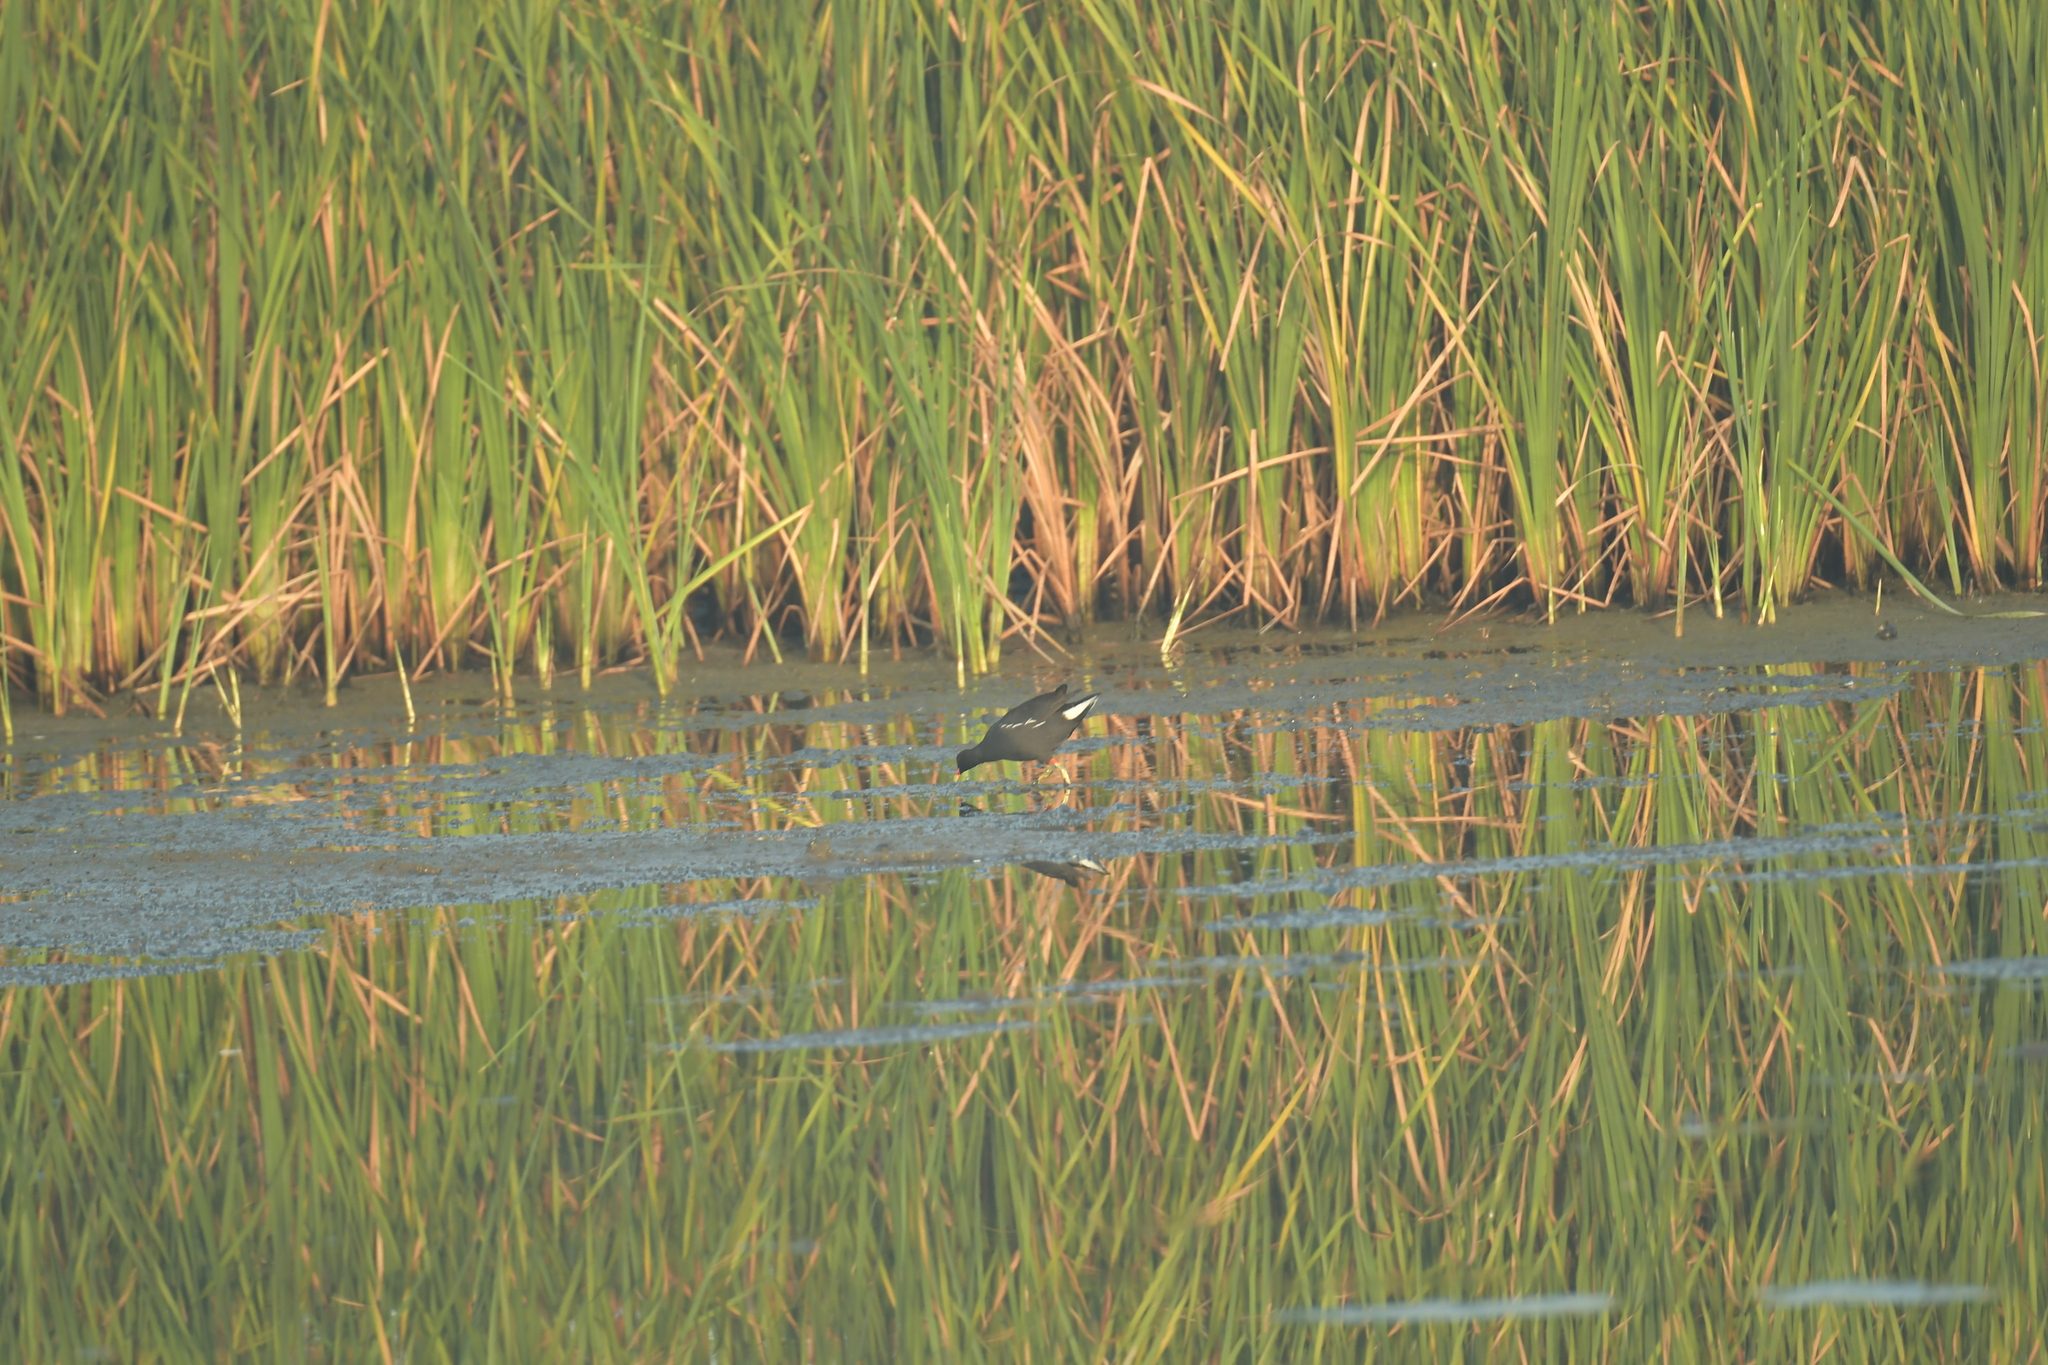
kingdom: Animalia
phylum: Chordata
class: Aves
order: Gruiformes
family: Rallidae
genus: Gallinula
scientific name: Gallinula chloropus
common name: Common moorhen
